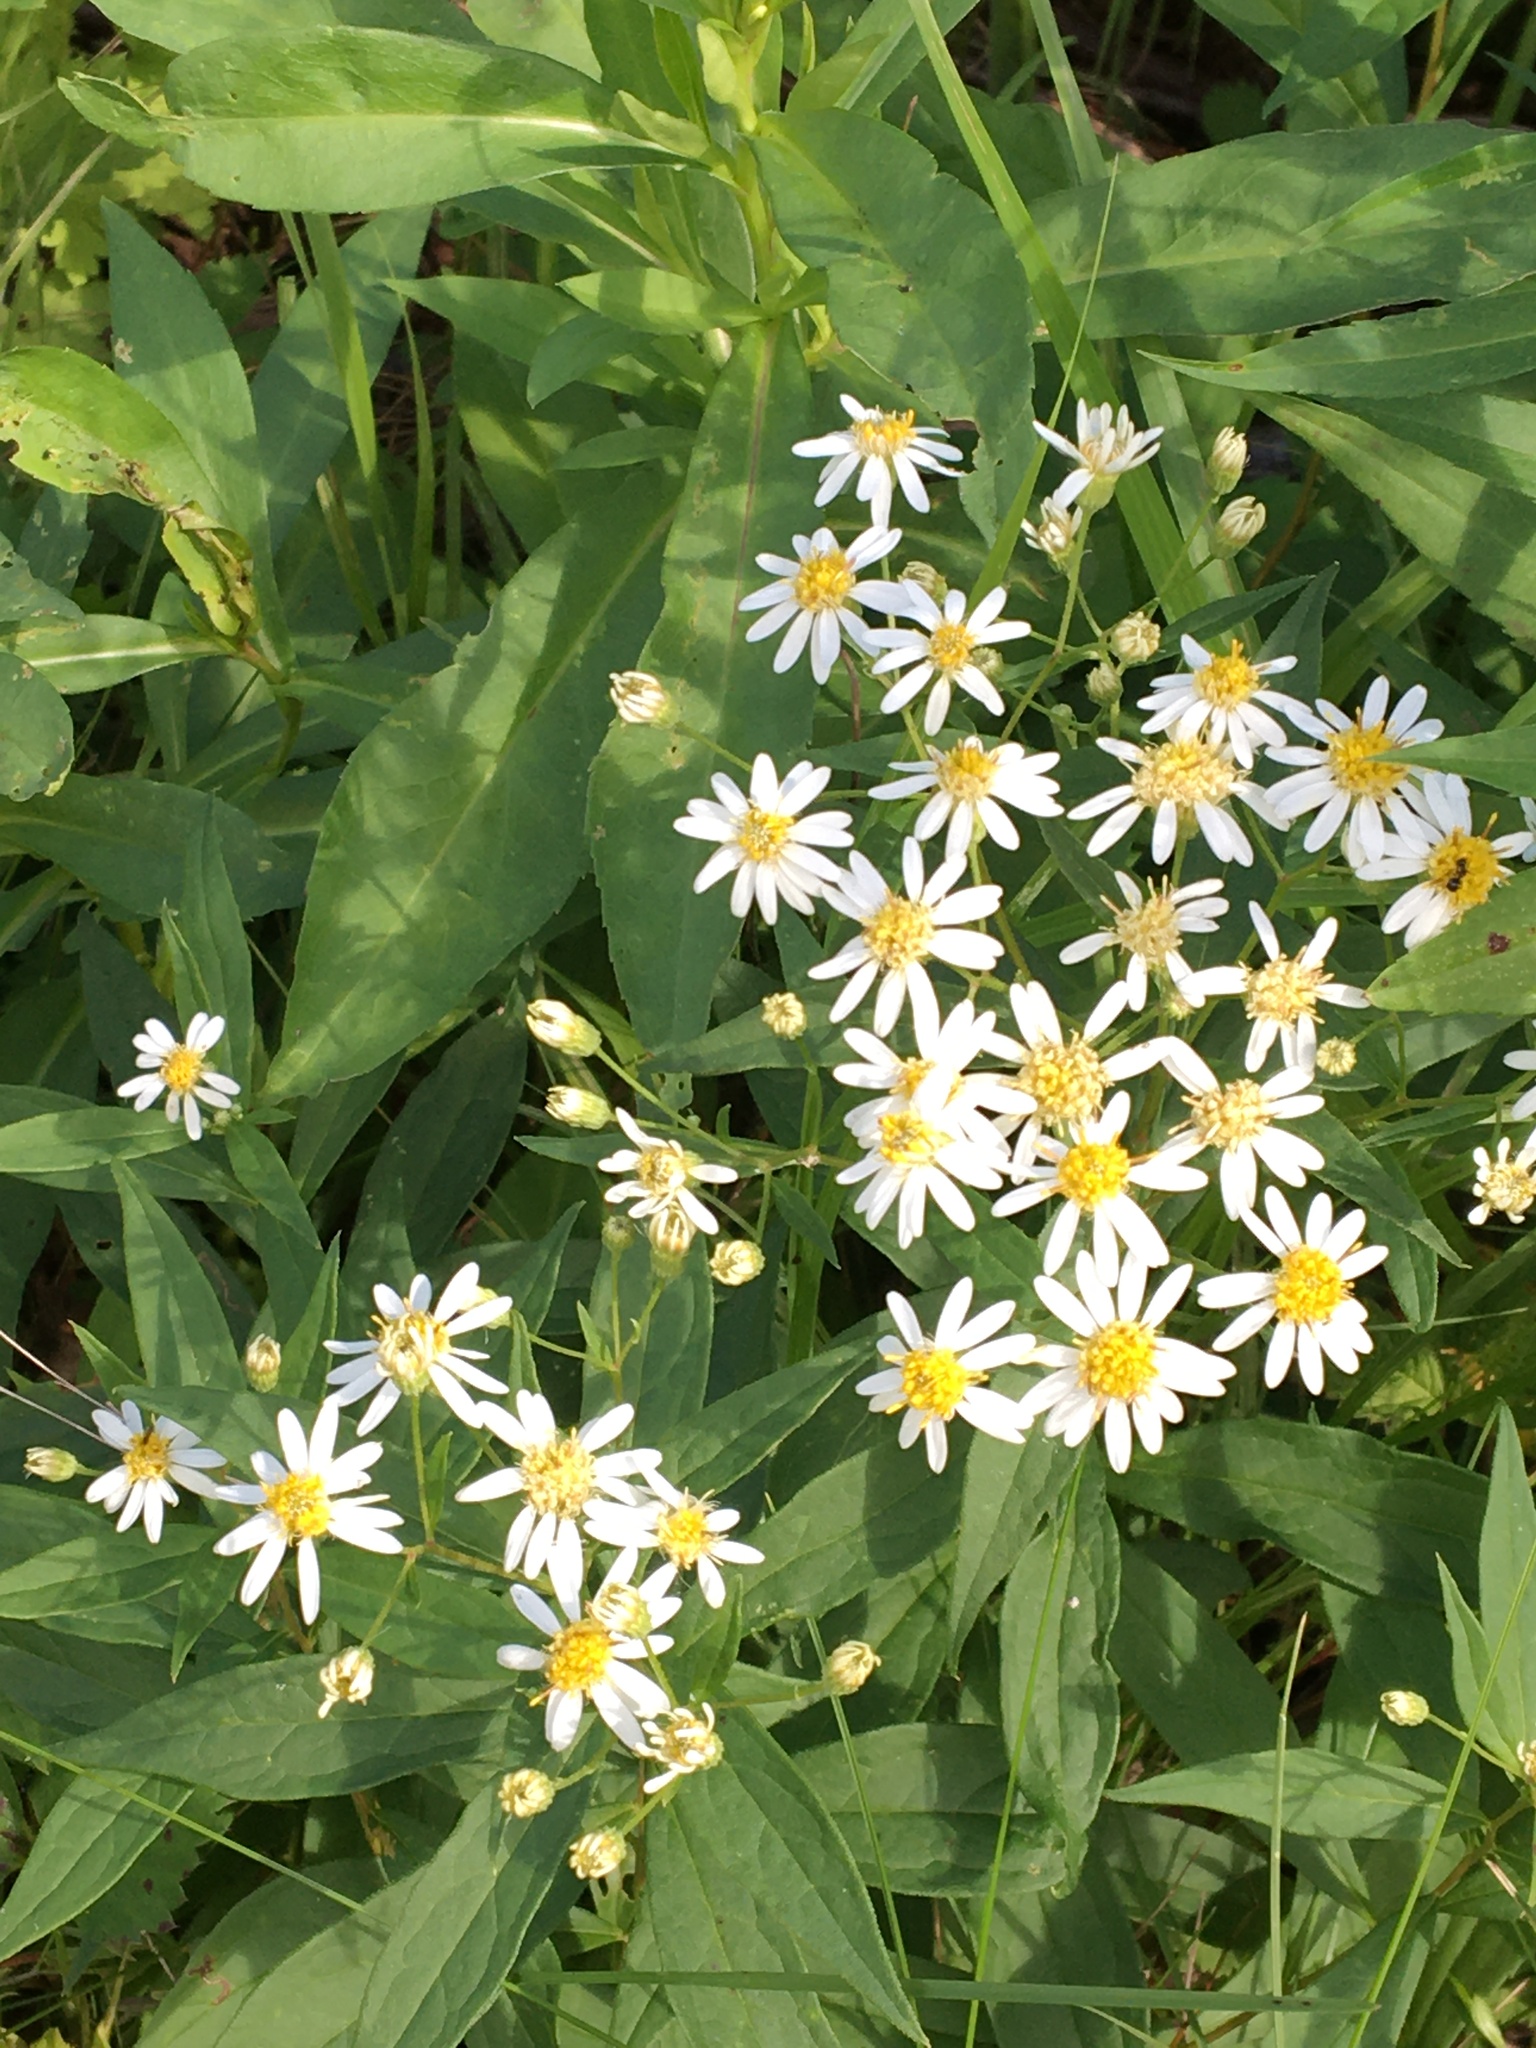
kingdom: Plantae
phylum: Tracheophyta
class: Magnoliopsida
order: Asterales
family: Asteraceae
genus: Doellingeria
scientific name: Doellingeria umbellata
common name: Flat-top white aster
